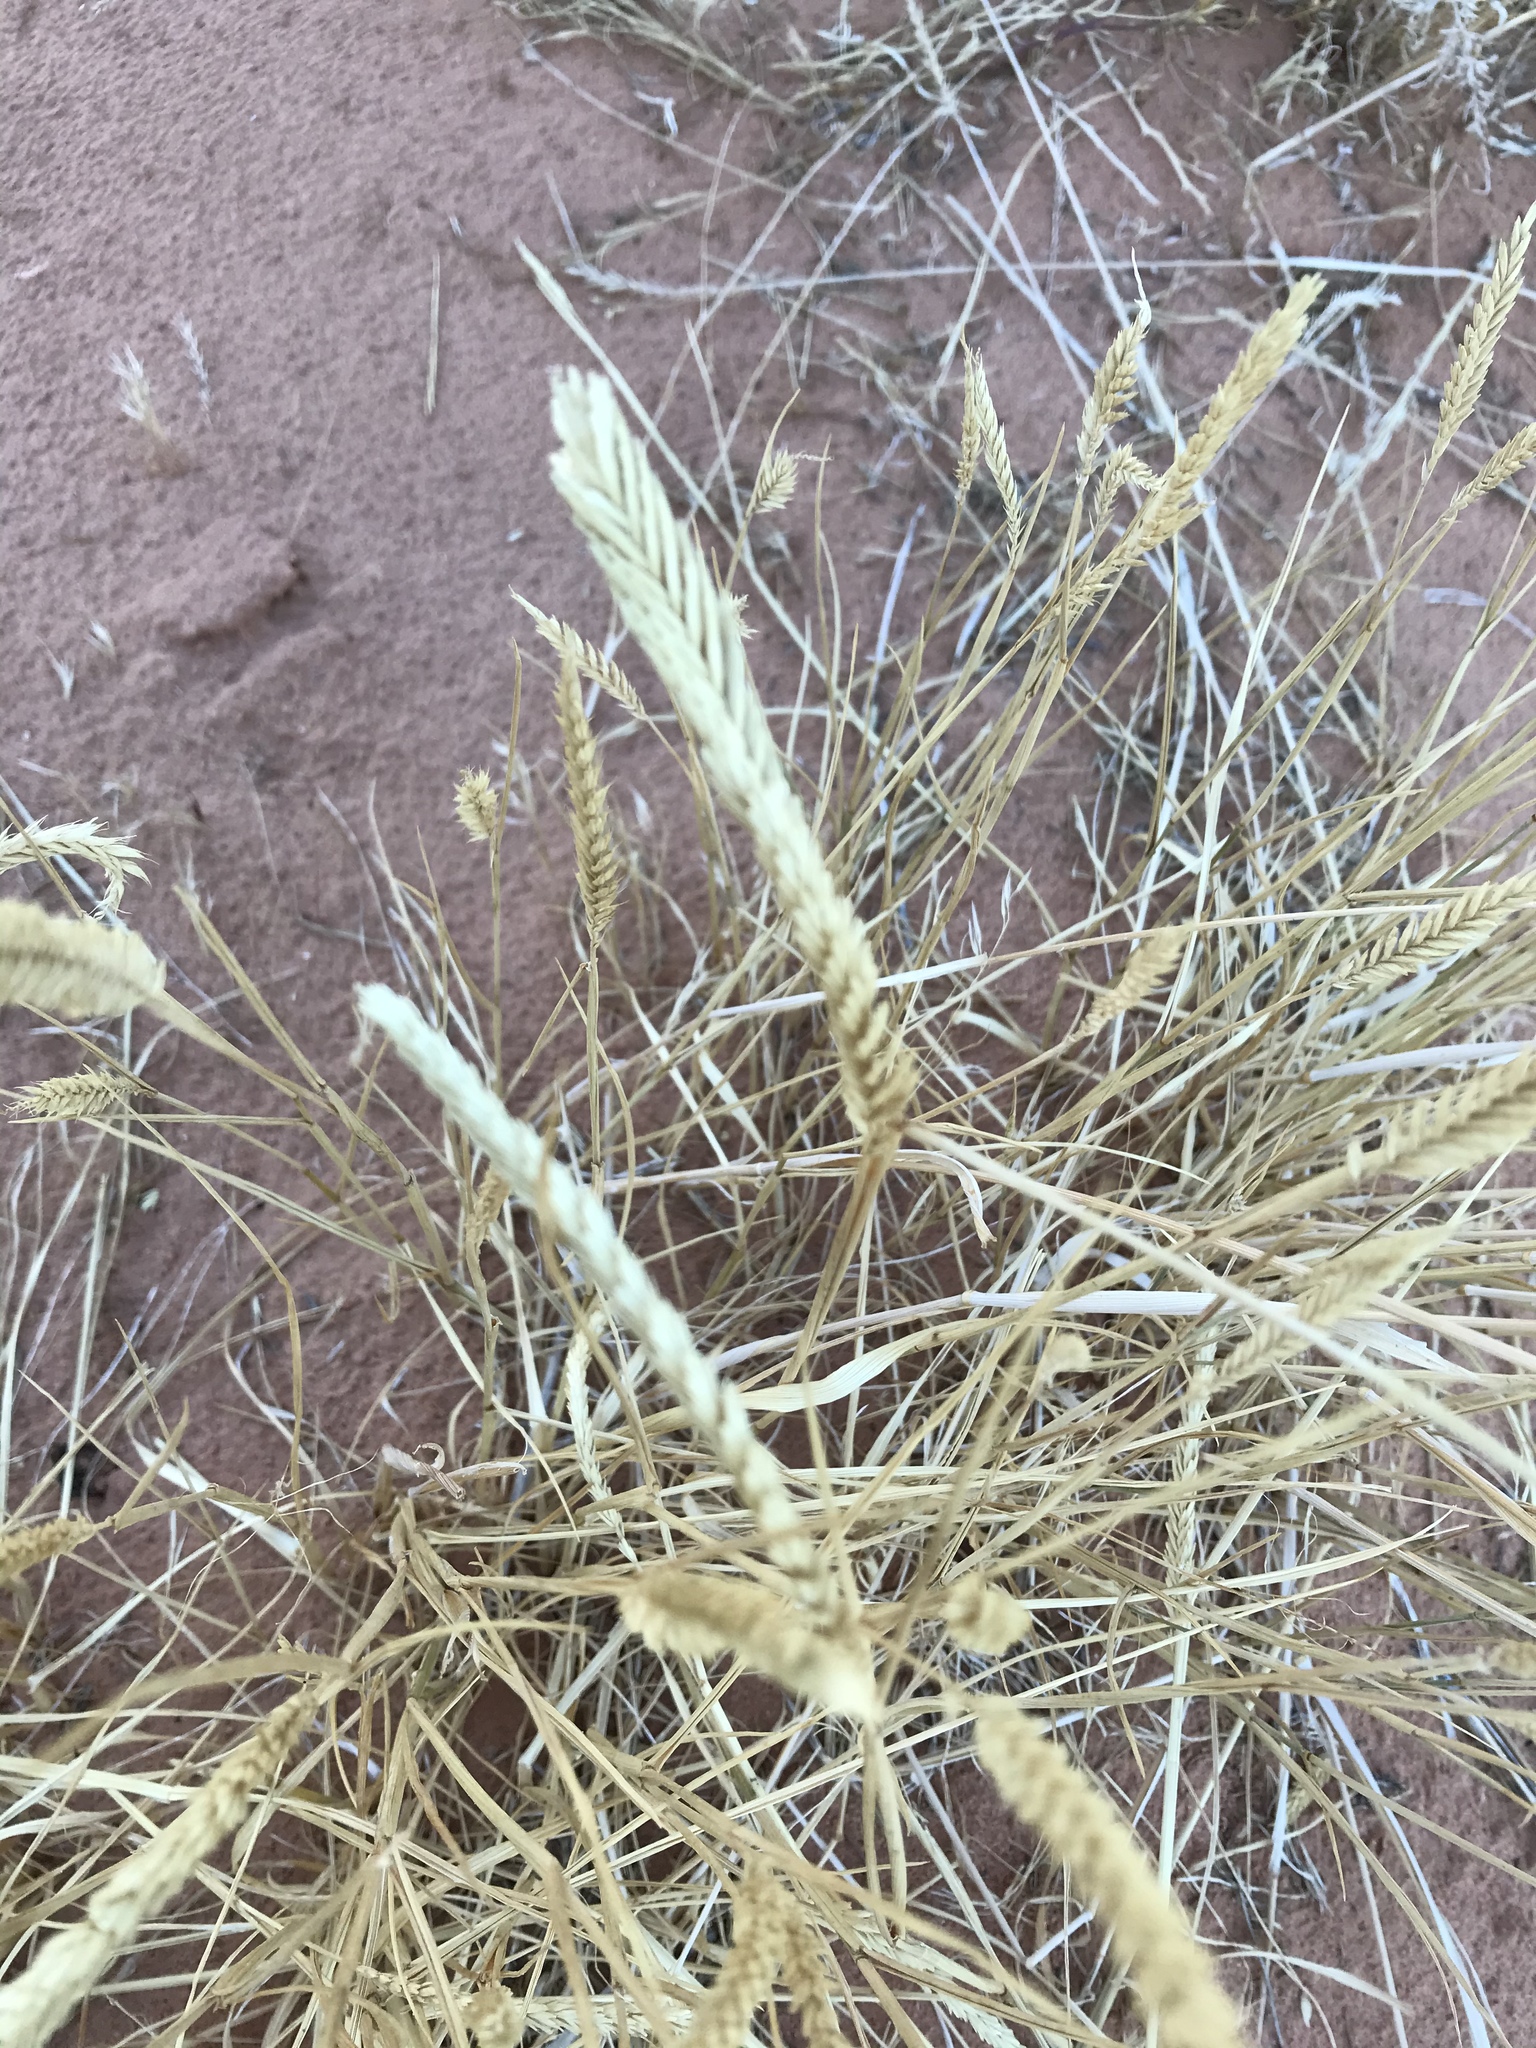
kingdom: Plantae
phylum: Tracheophyta
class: Liliopsida
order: Poales
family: Poaceae
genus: Agropyron
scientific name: Agropyron cristatum
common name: Crested wheatgrass
